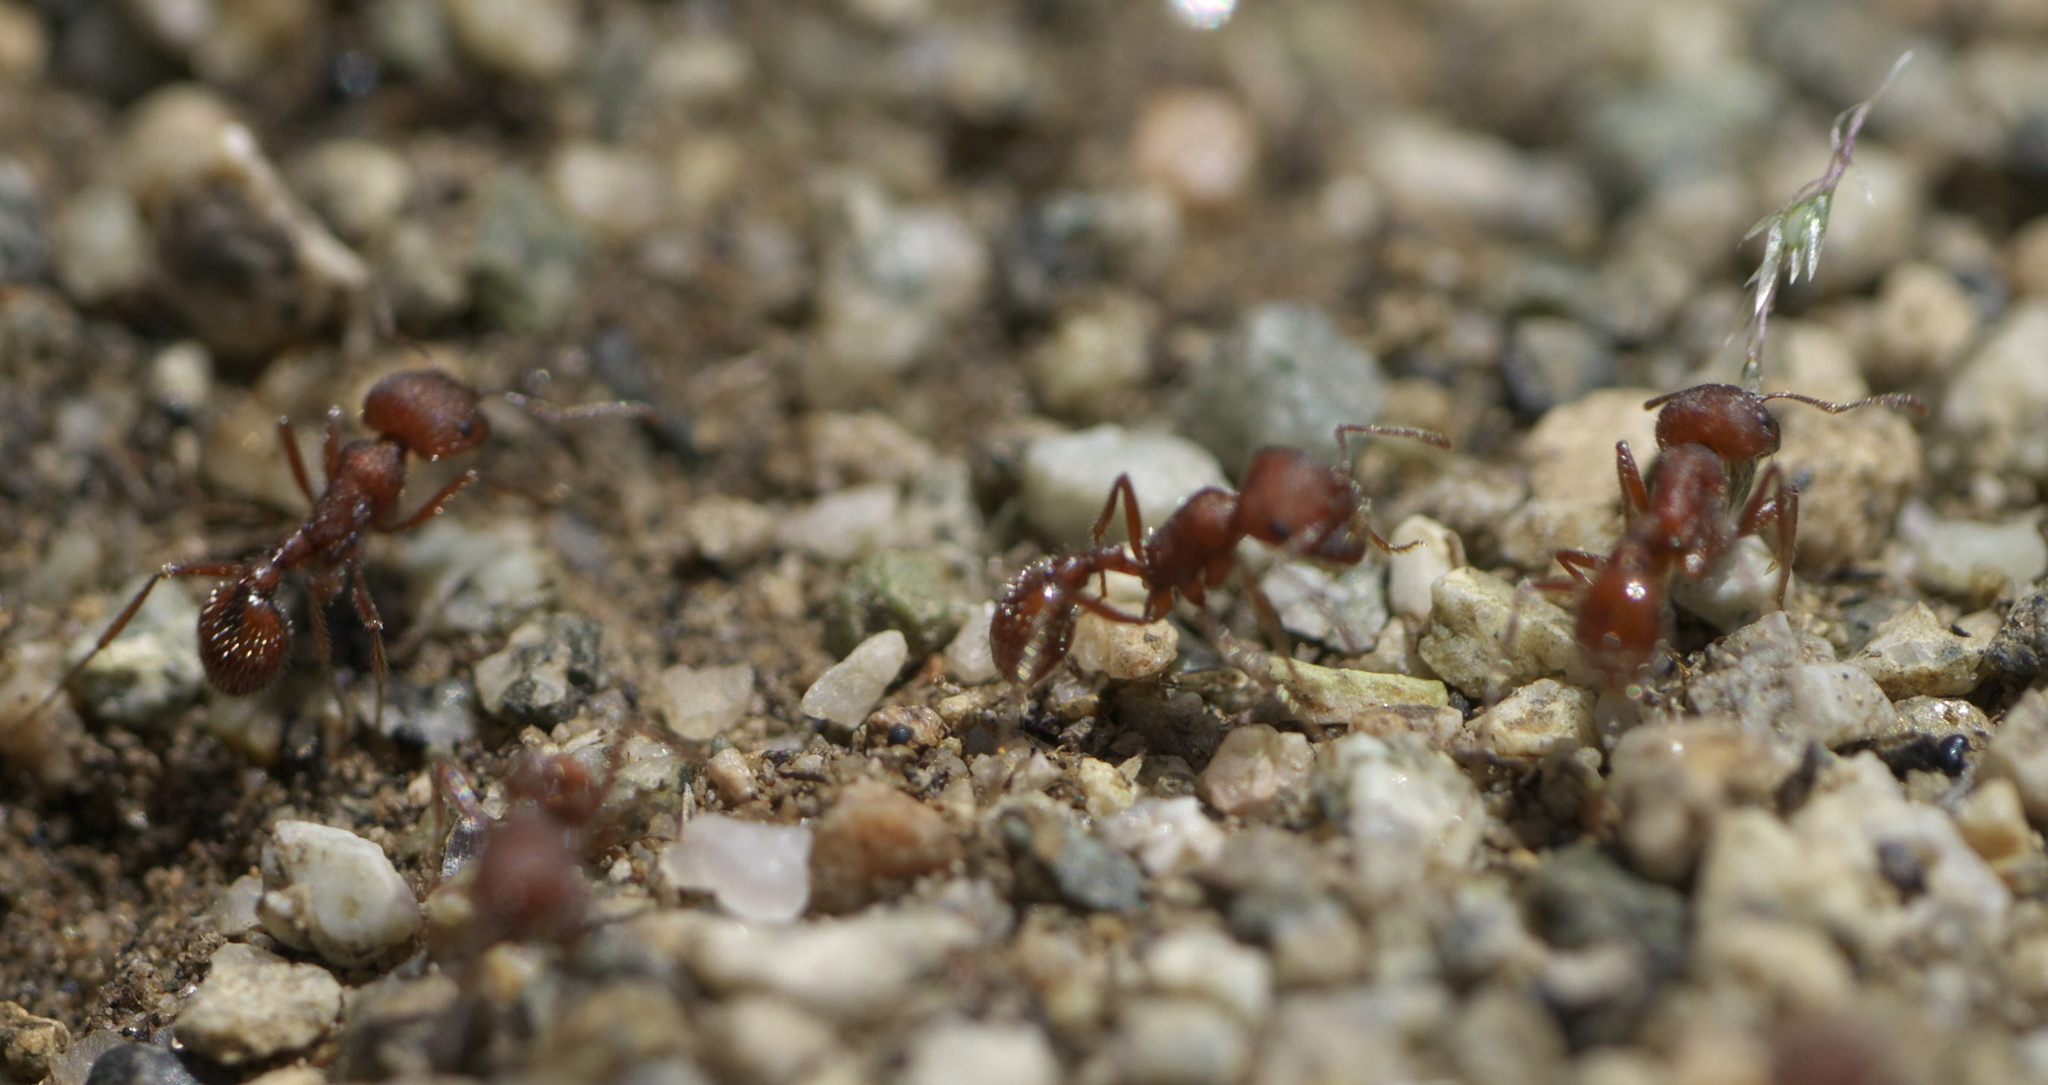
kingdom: Animalia
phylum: Arthropoda
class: Insecta
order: Hymenoptera
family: Formicidae
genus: Pogonomyrmex
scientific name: Pogonomyrmex occidentalis
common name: Western harvester ant
